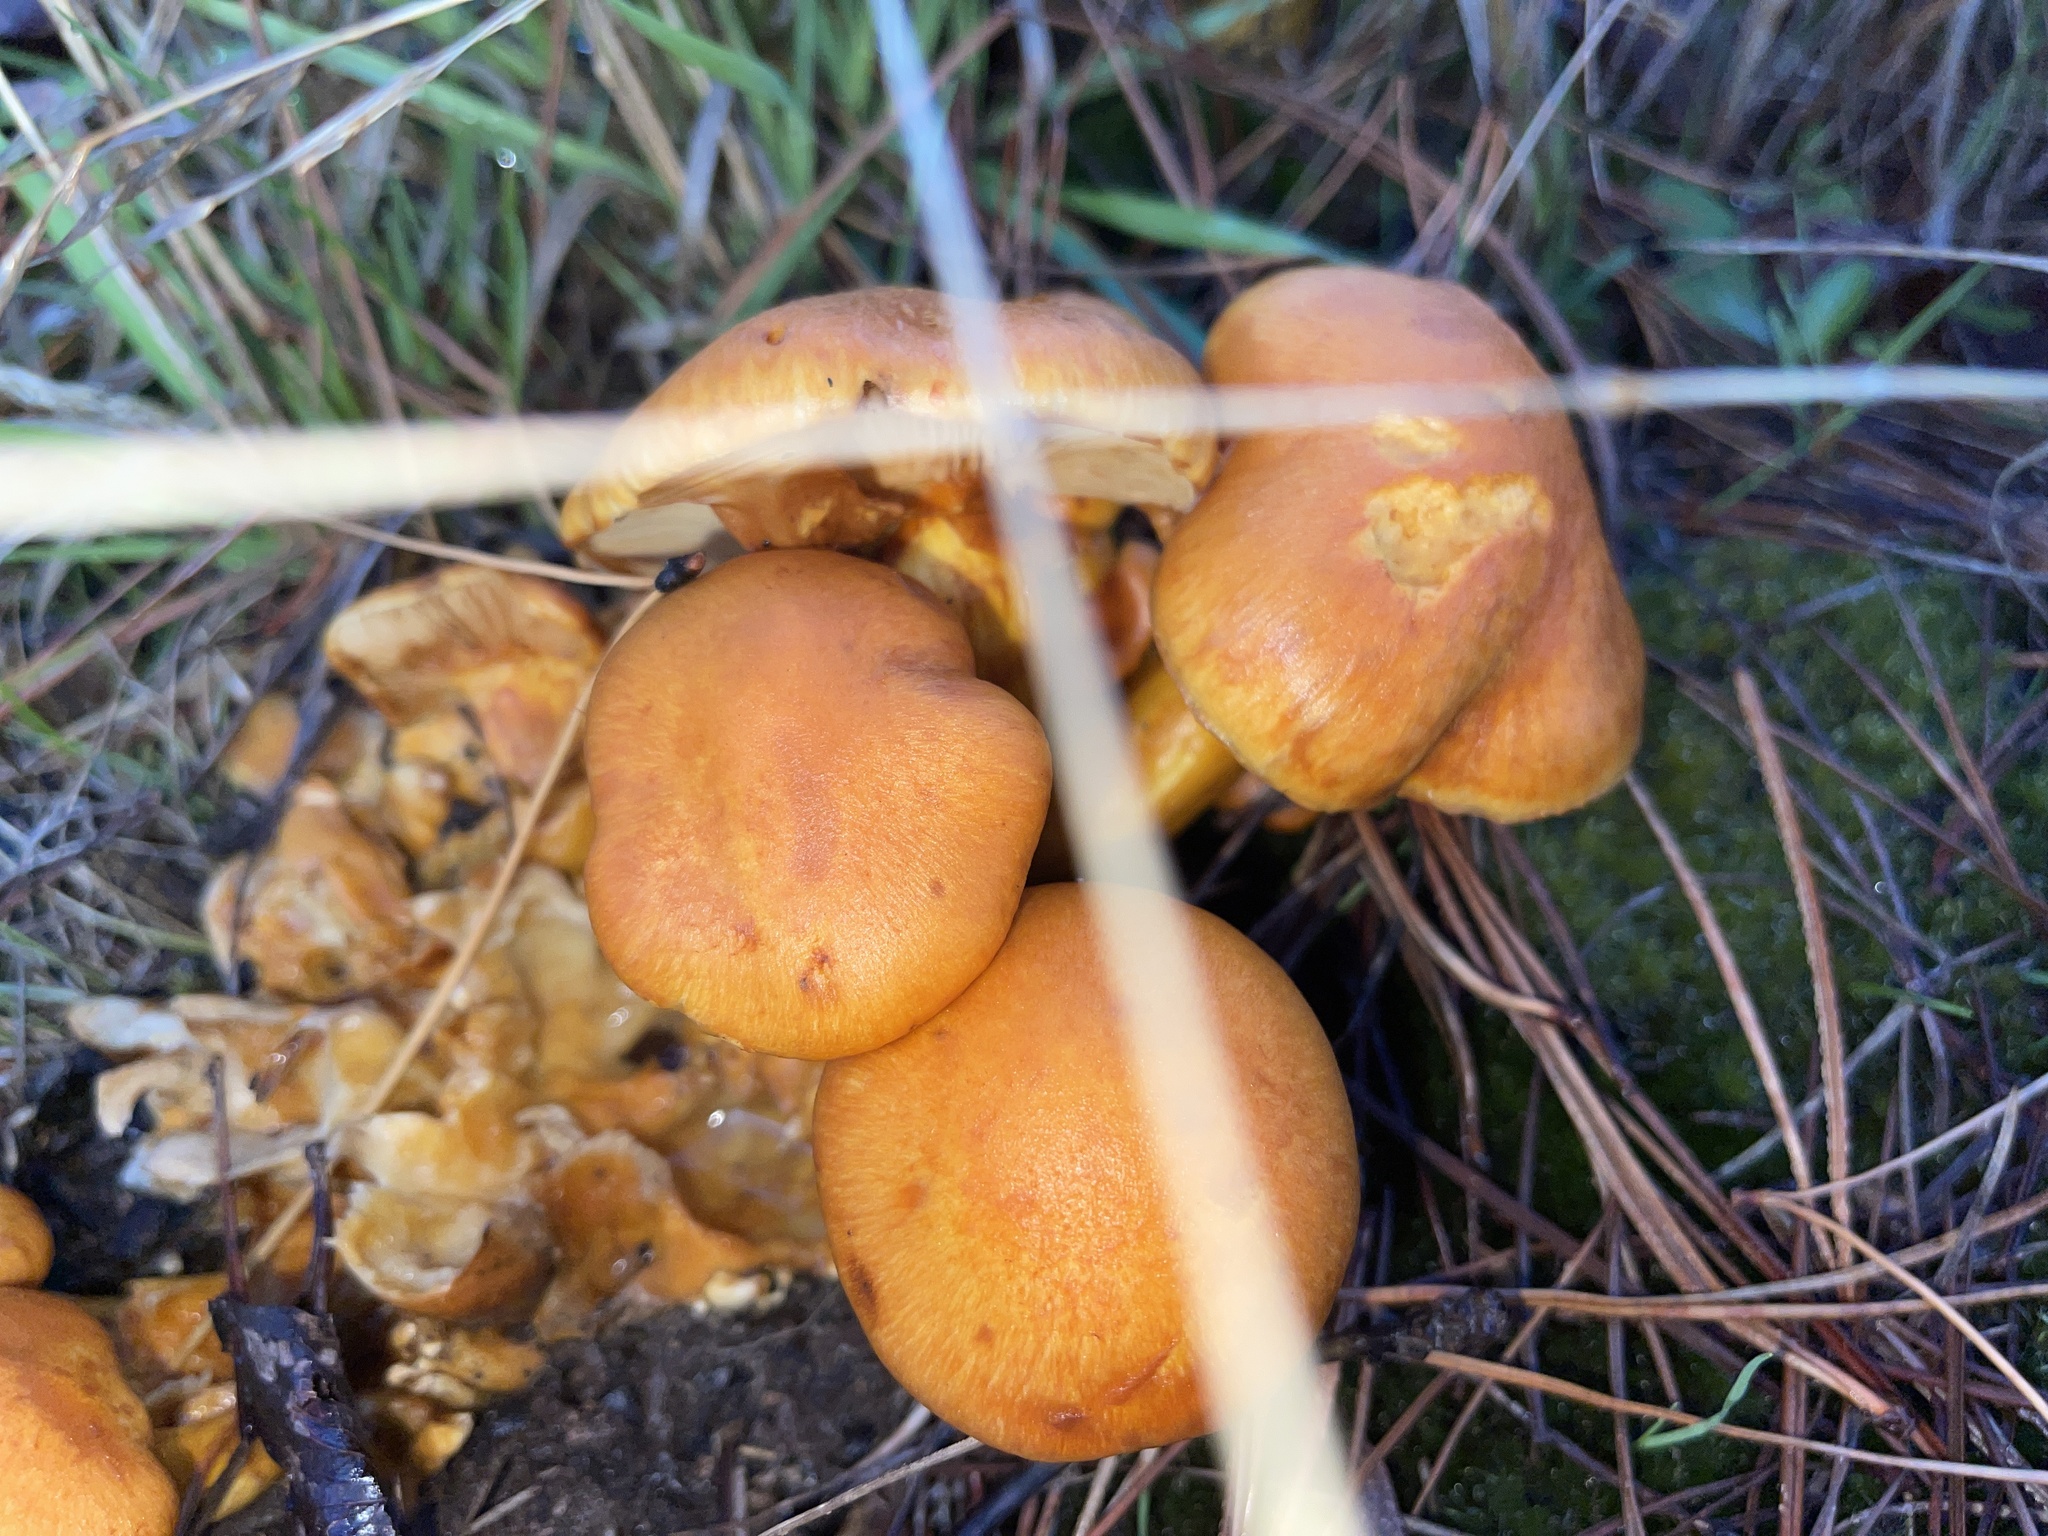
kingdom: Fungi
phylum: Basidiomycota
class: Agaricomycetes
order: Agaricales
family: Hymenogastraceae
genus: Gymnopilus
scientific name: Gymnopilus junonius
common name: Spectacular rustgill
